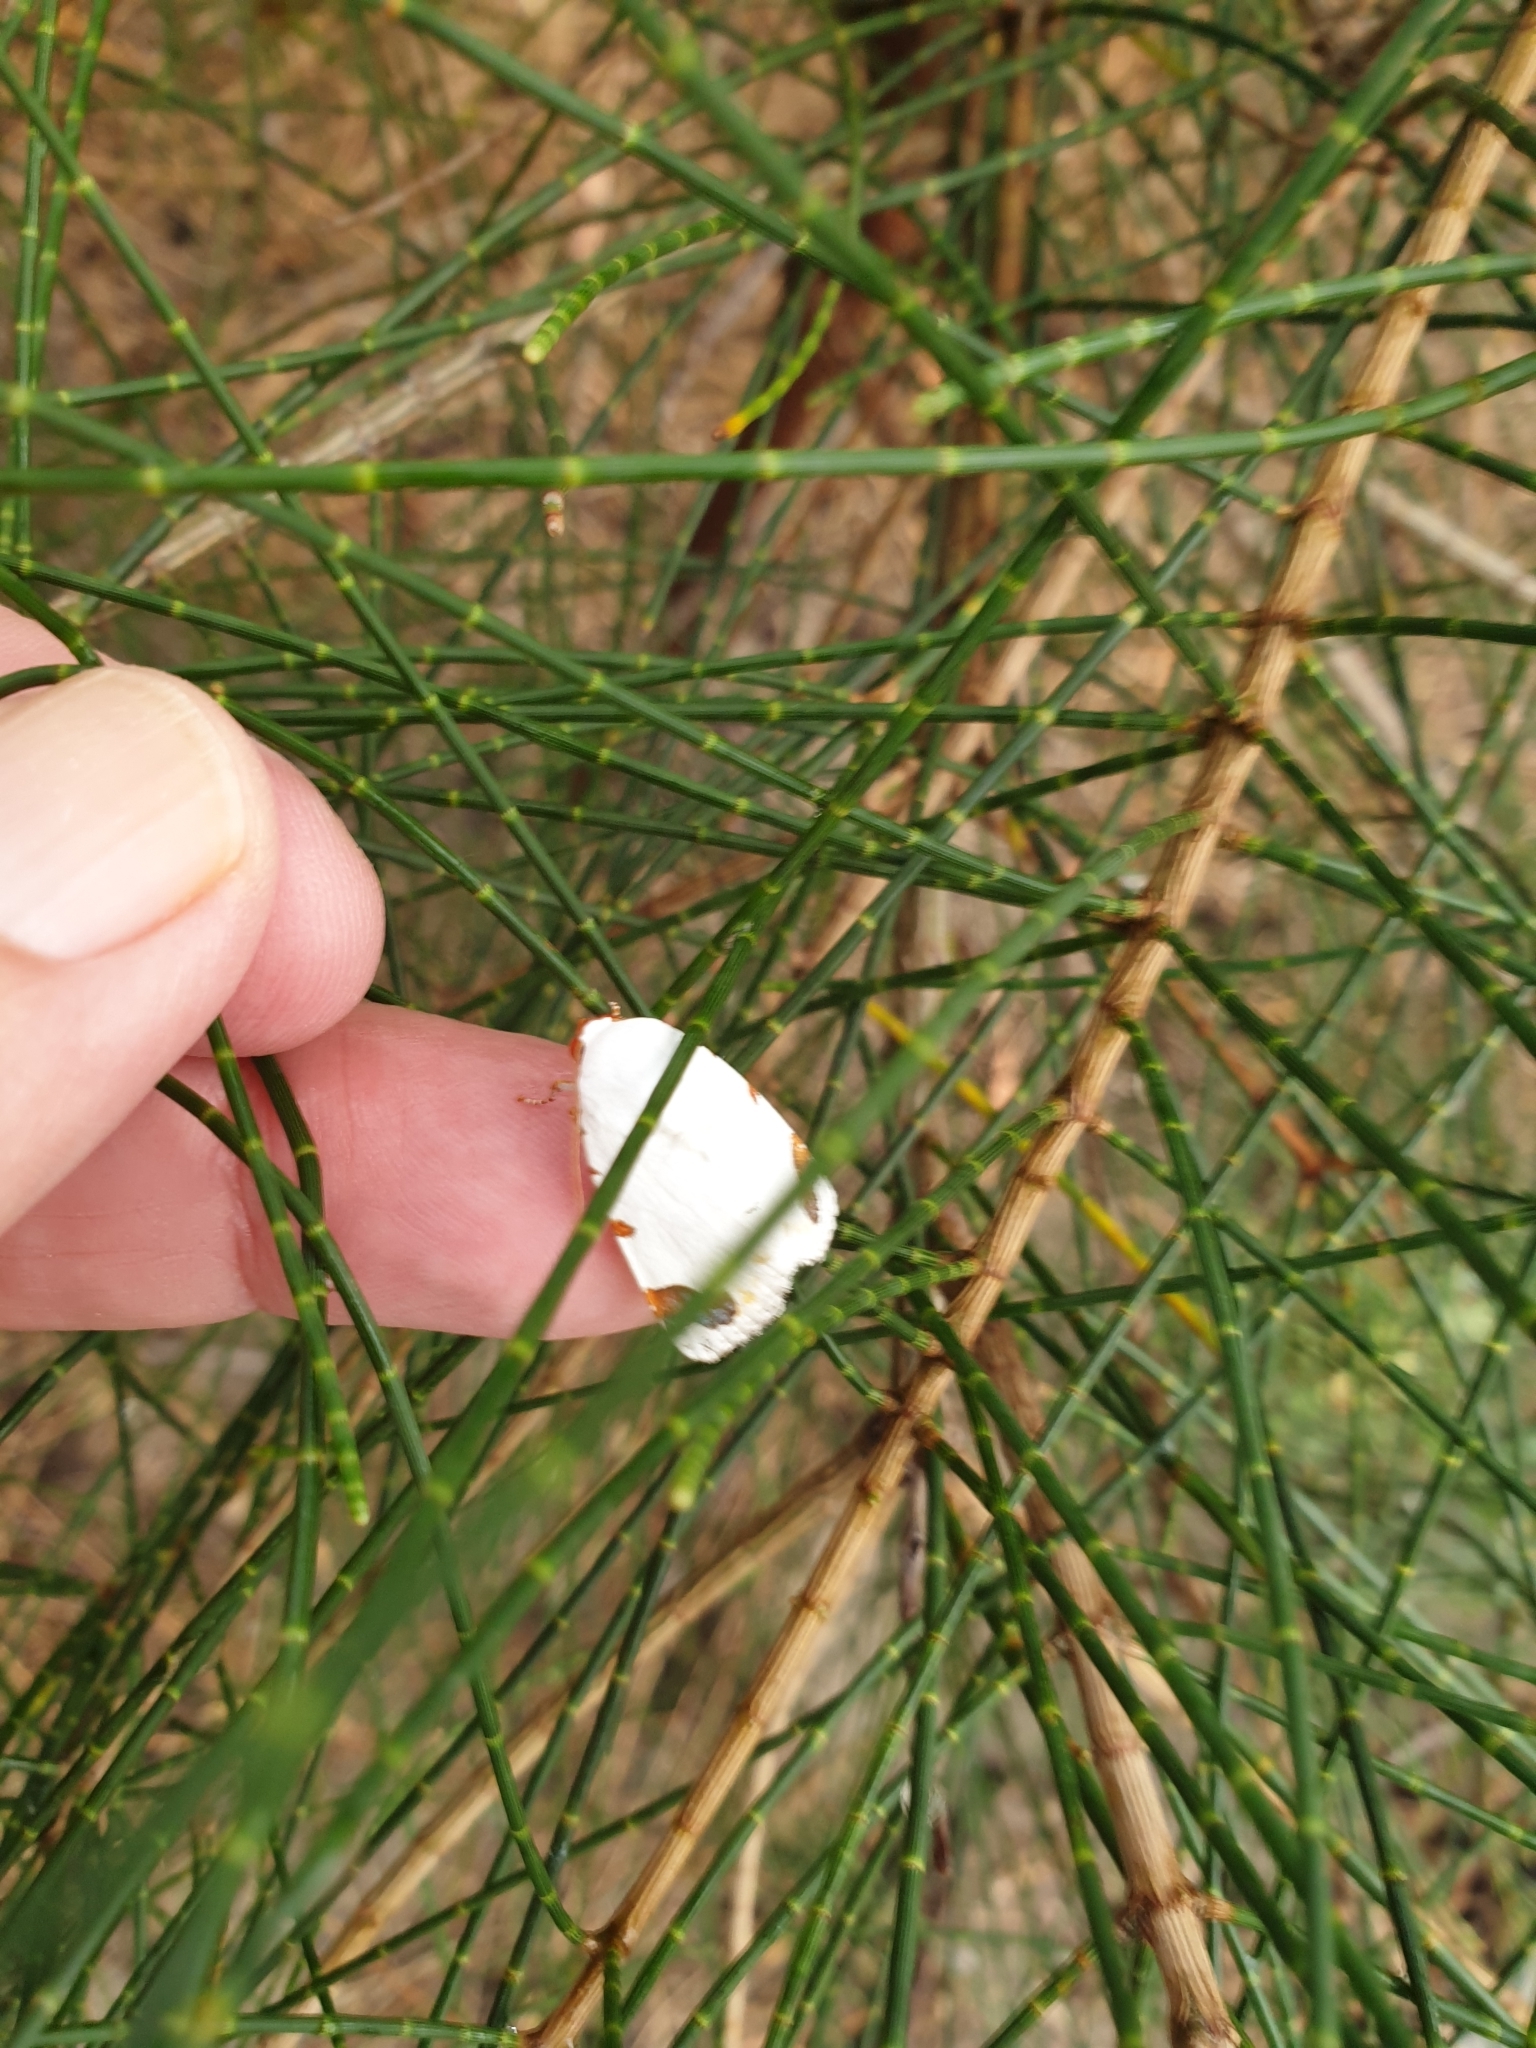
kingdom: Animalia
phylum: Arthropoda
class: Insecta
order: Lepidoptera
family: Noctuidae
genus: Chasmina
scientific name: Chasmina pulchra
